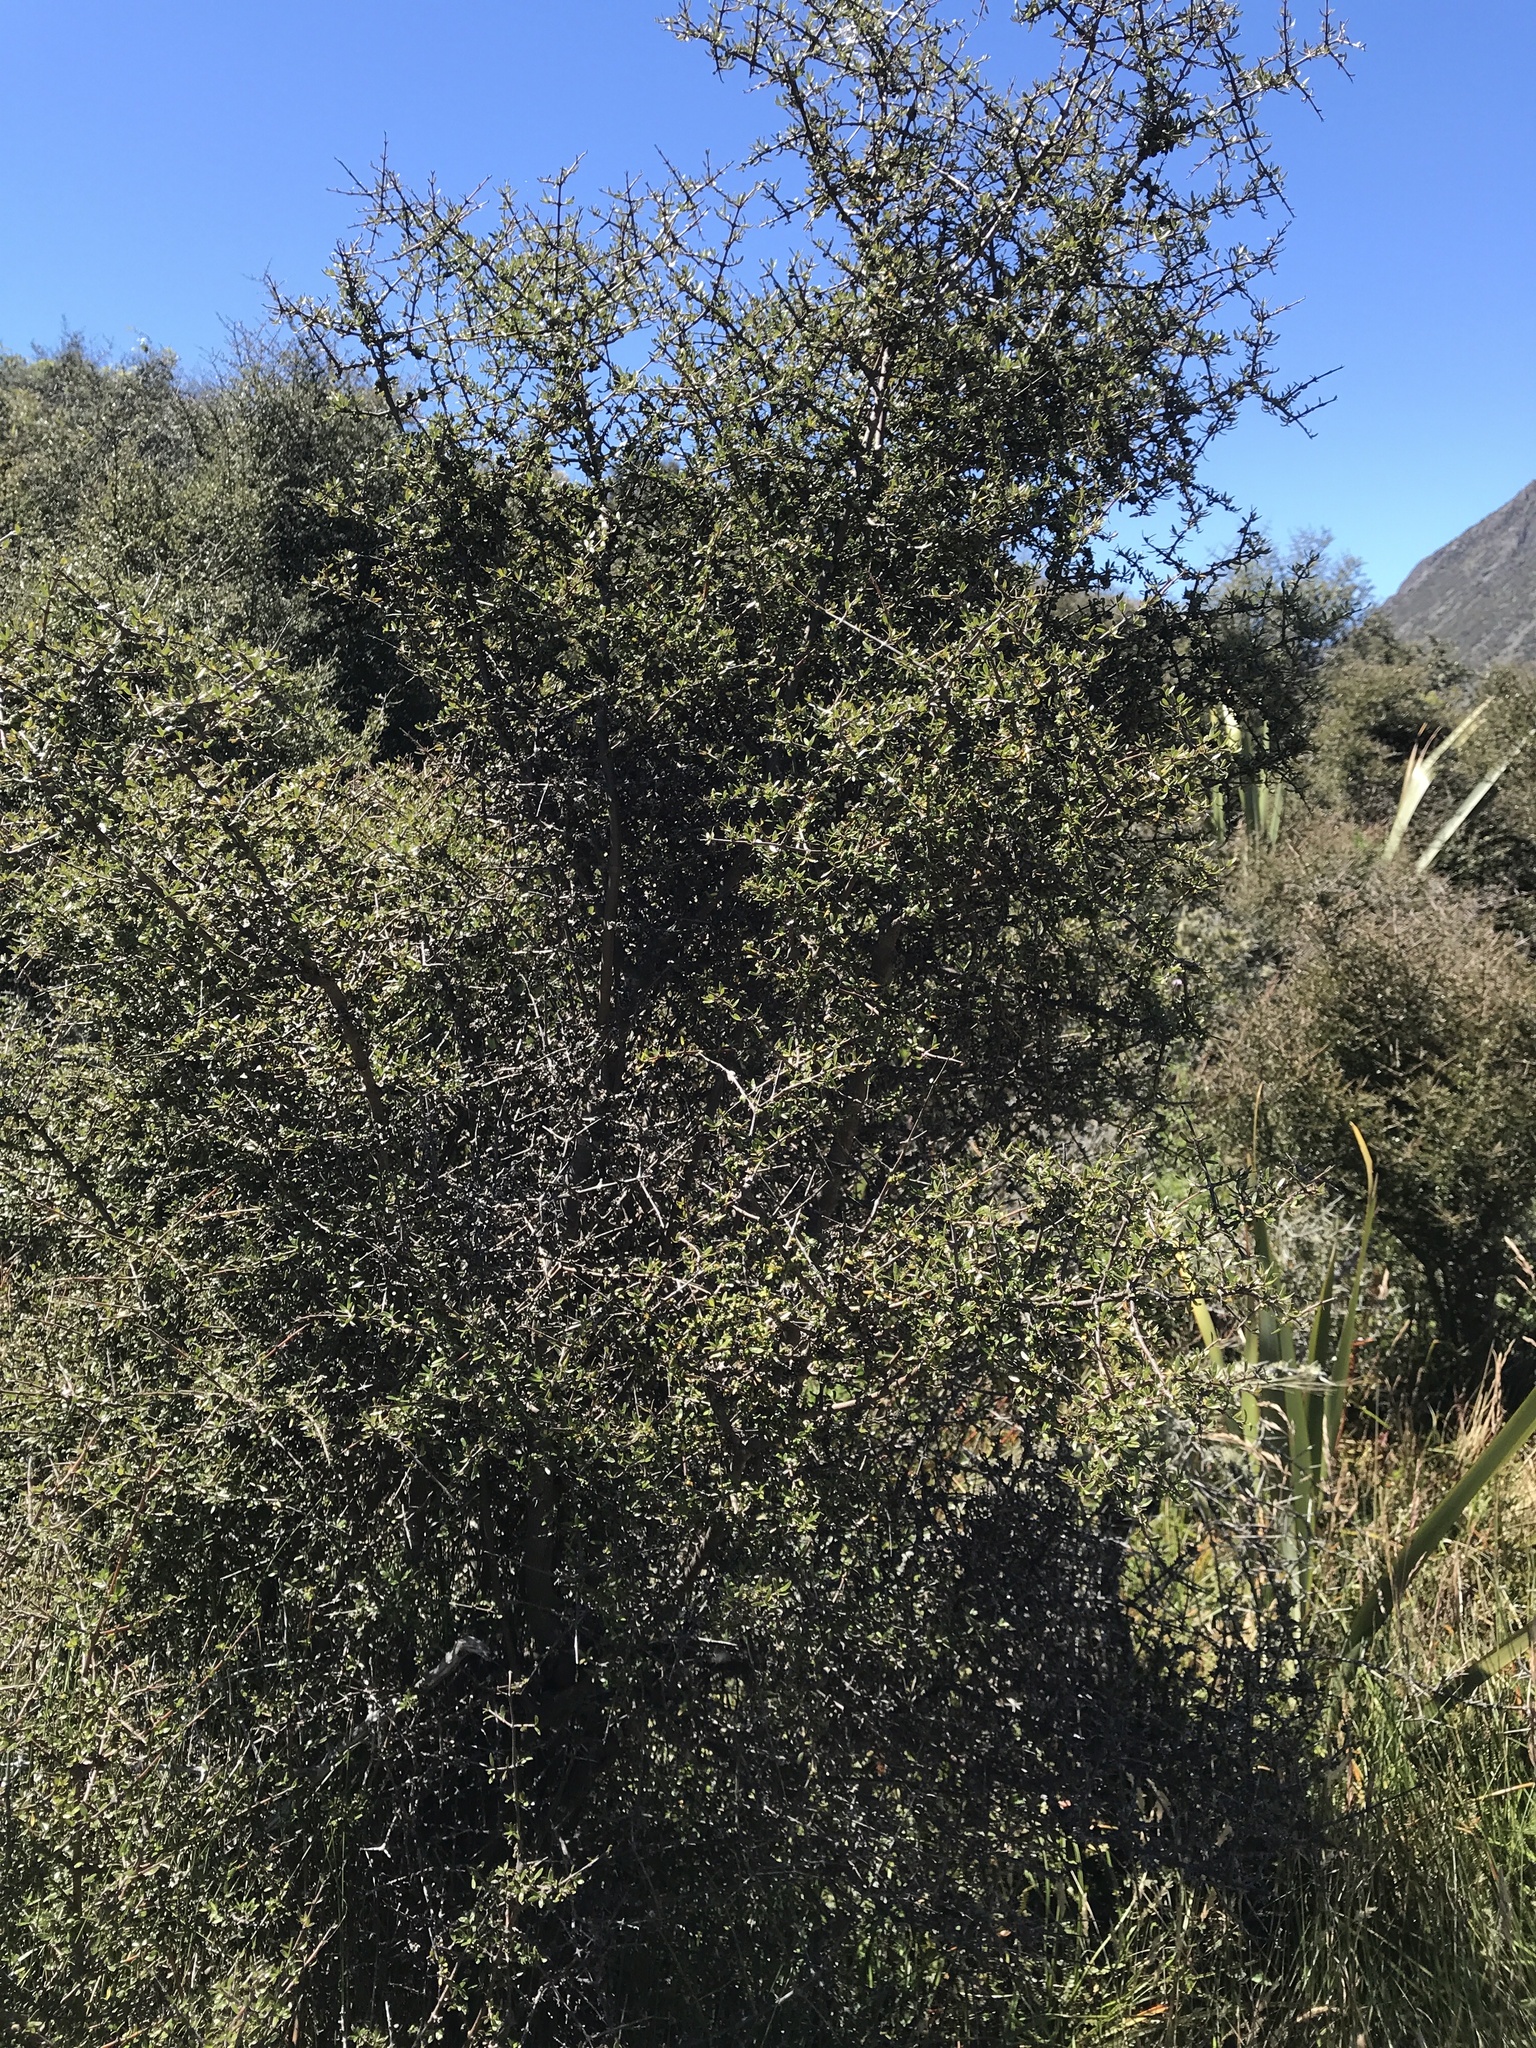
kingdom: Plantae
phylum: Tracheophyta
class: Magnoliopsida
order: Gentianales
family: Rubiaceae
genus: Coprosma
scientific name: Coprosma propinqua
